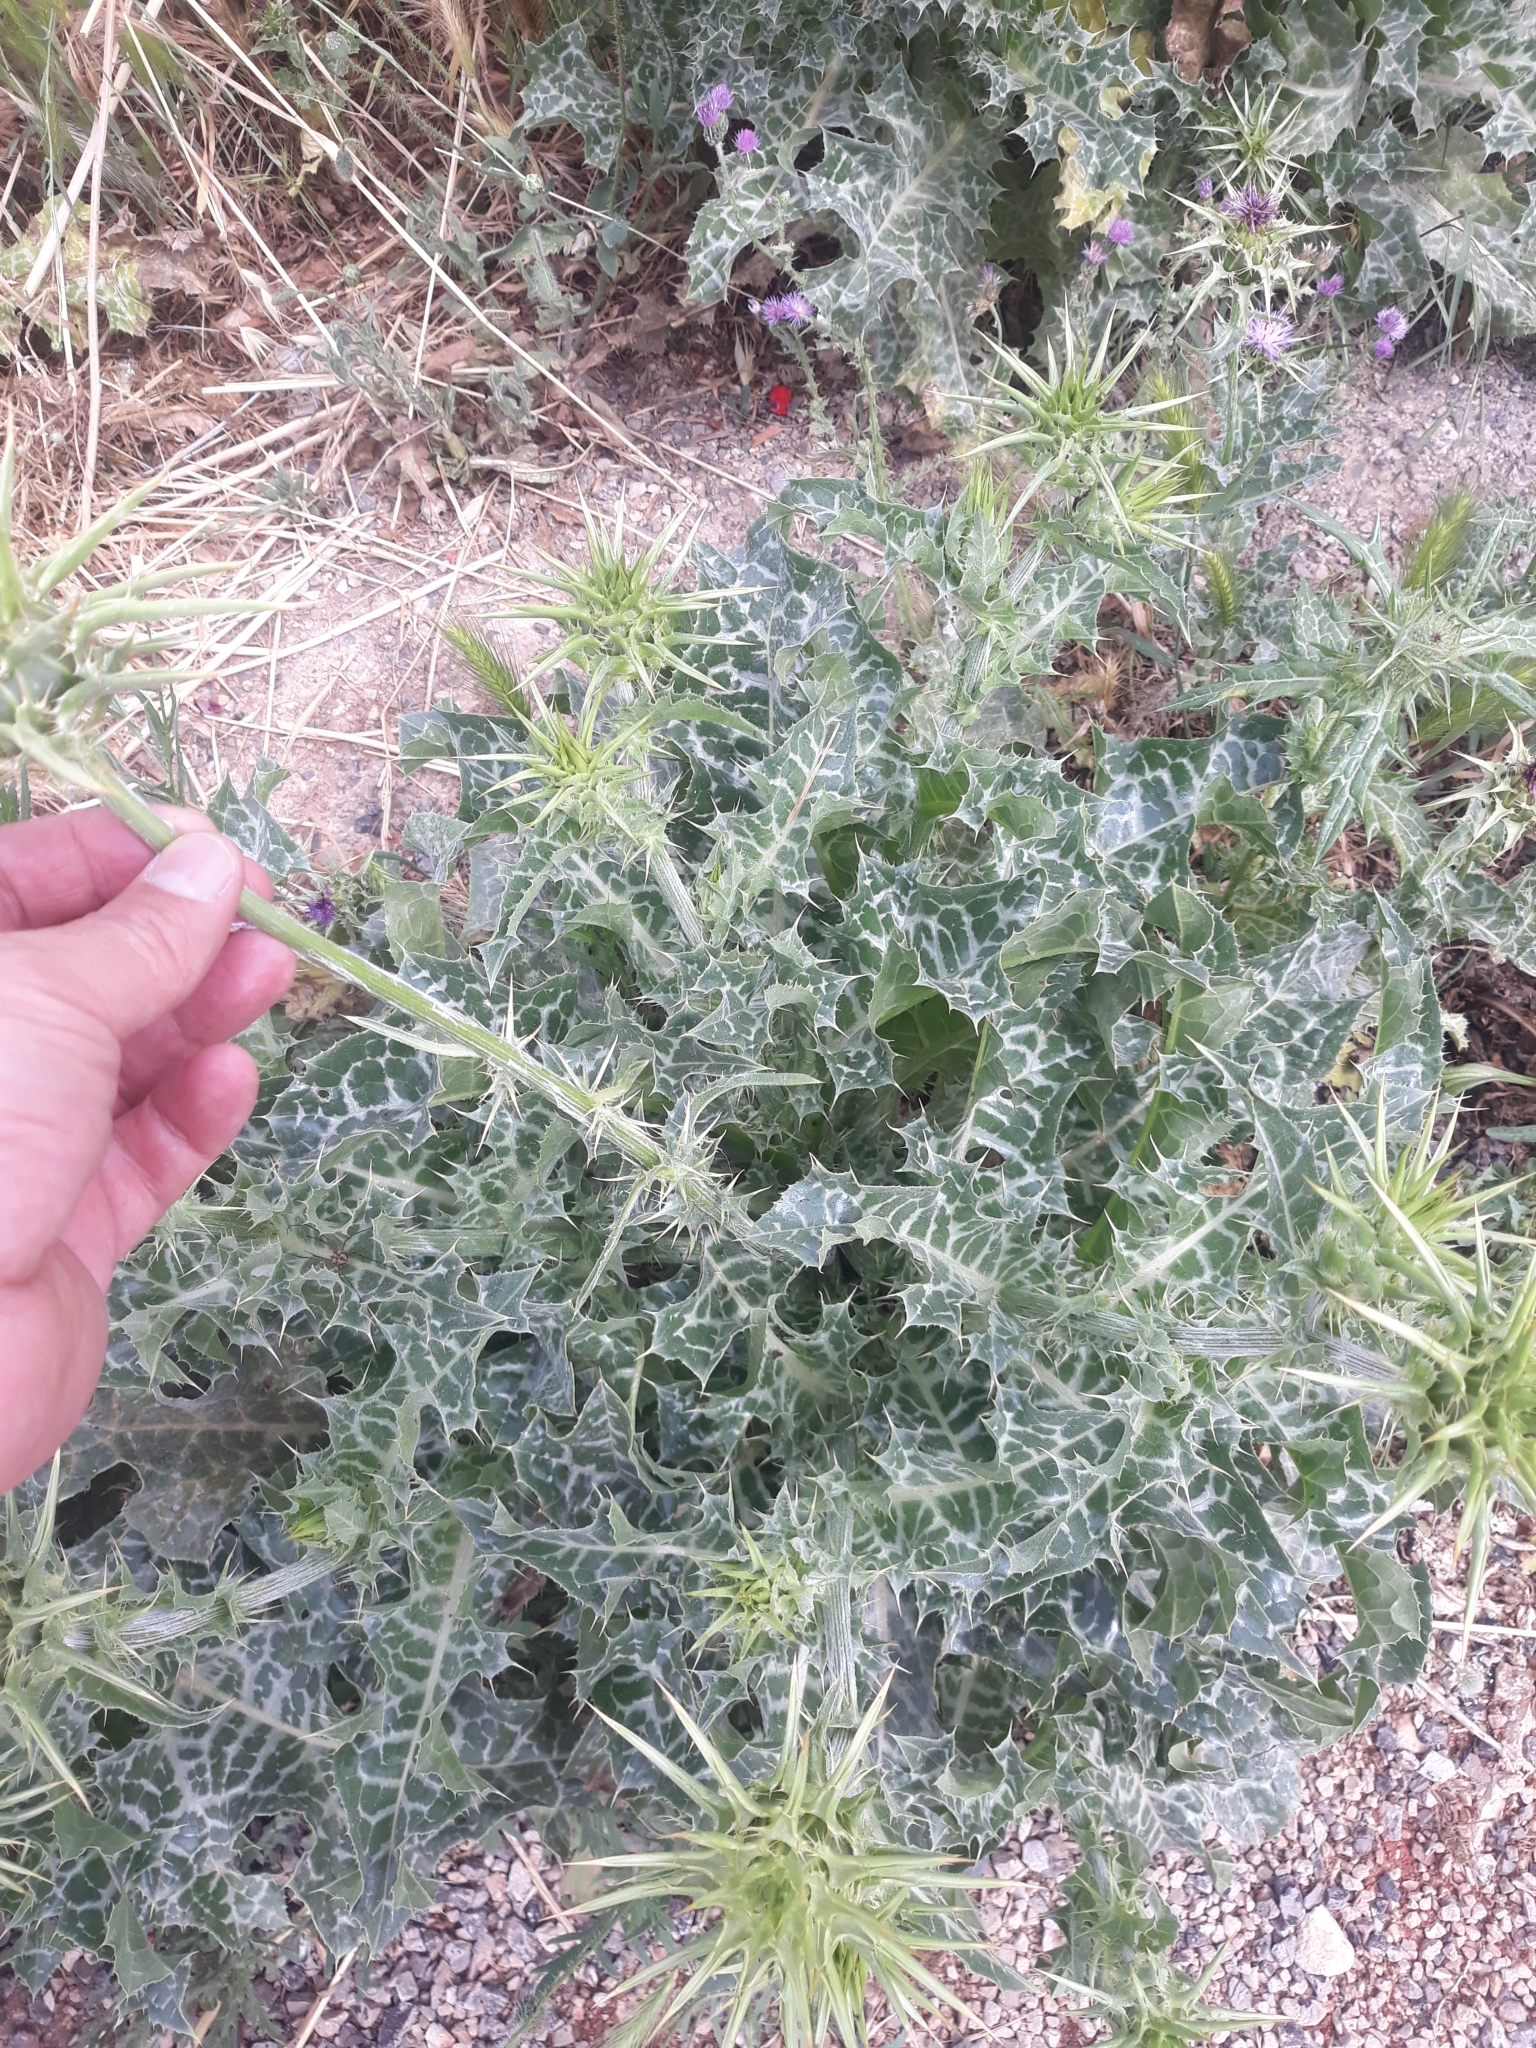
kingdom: Plantae
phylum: Tracheophyta
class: Magnoliopsida
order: Asterales
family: Asteraceae
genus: Silybum
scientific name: Silybum marianum
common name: Milk thistle
